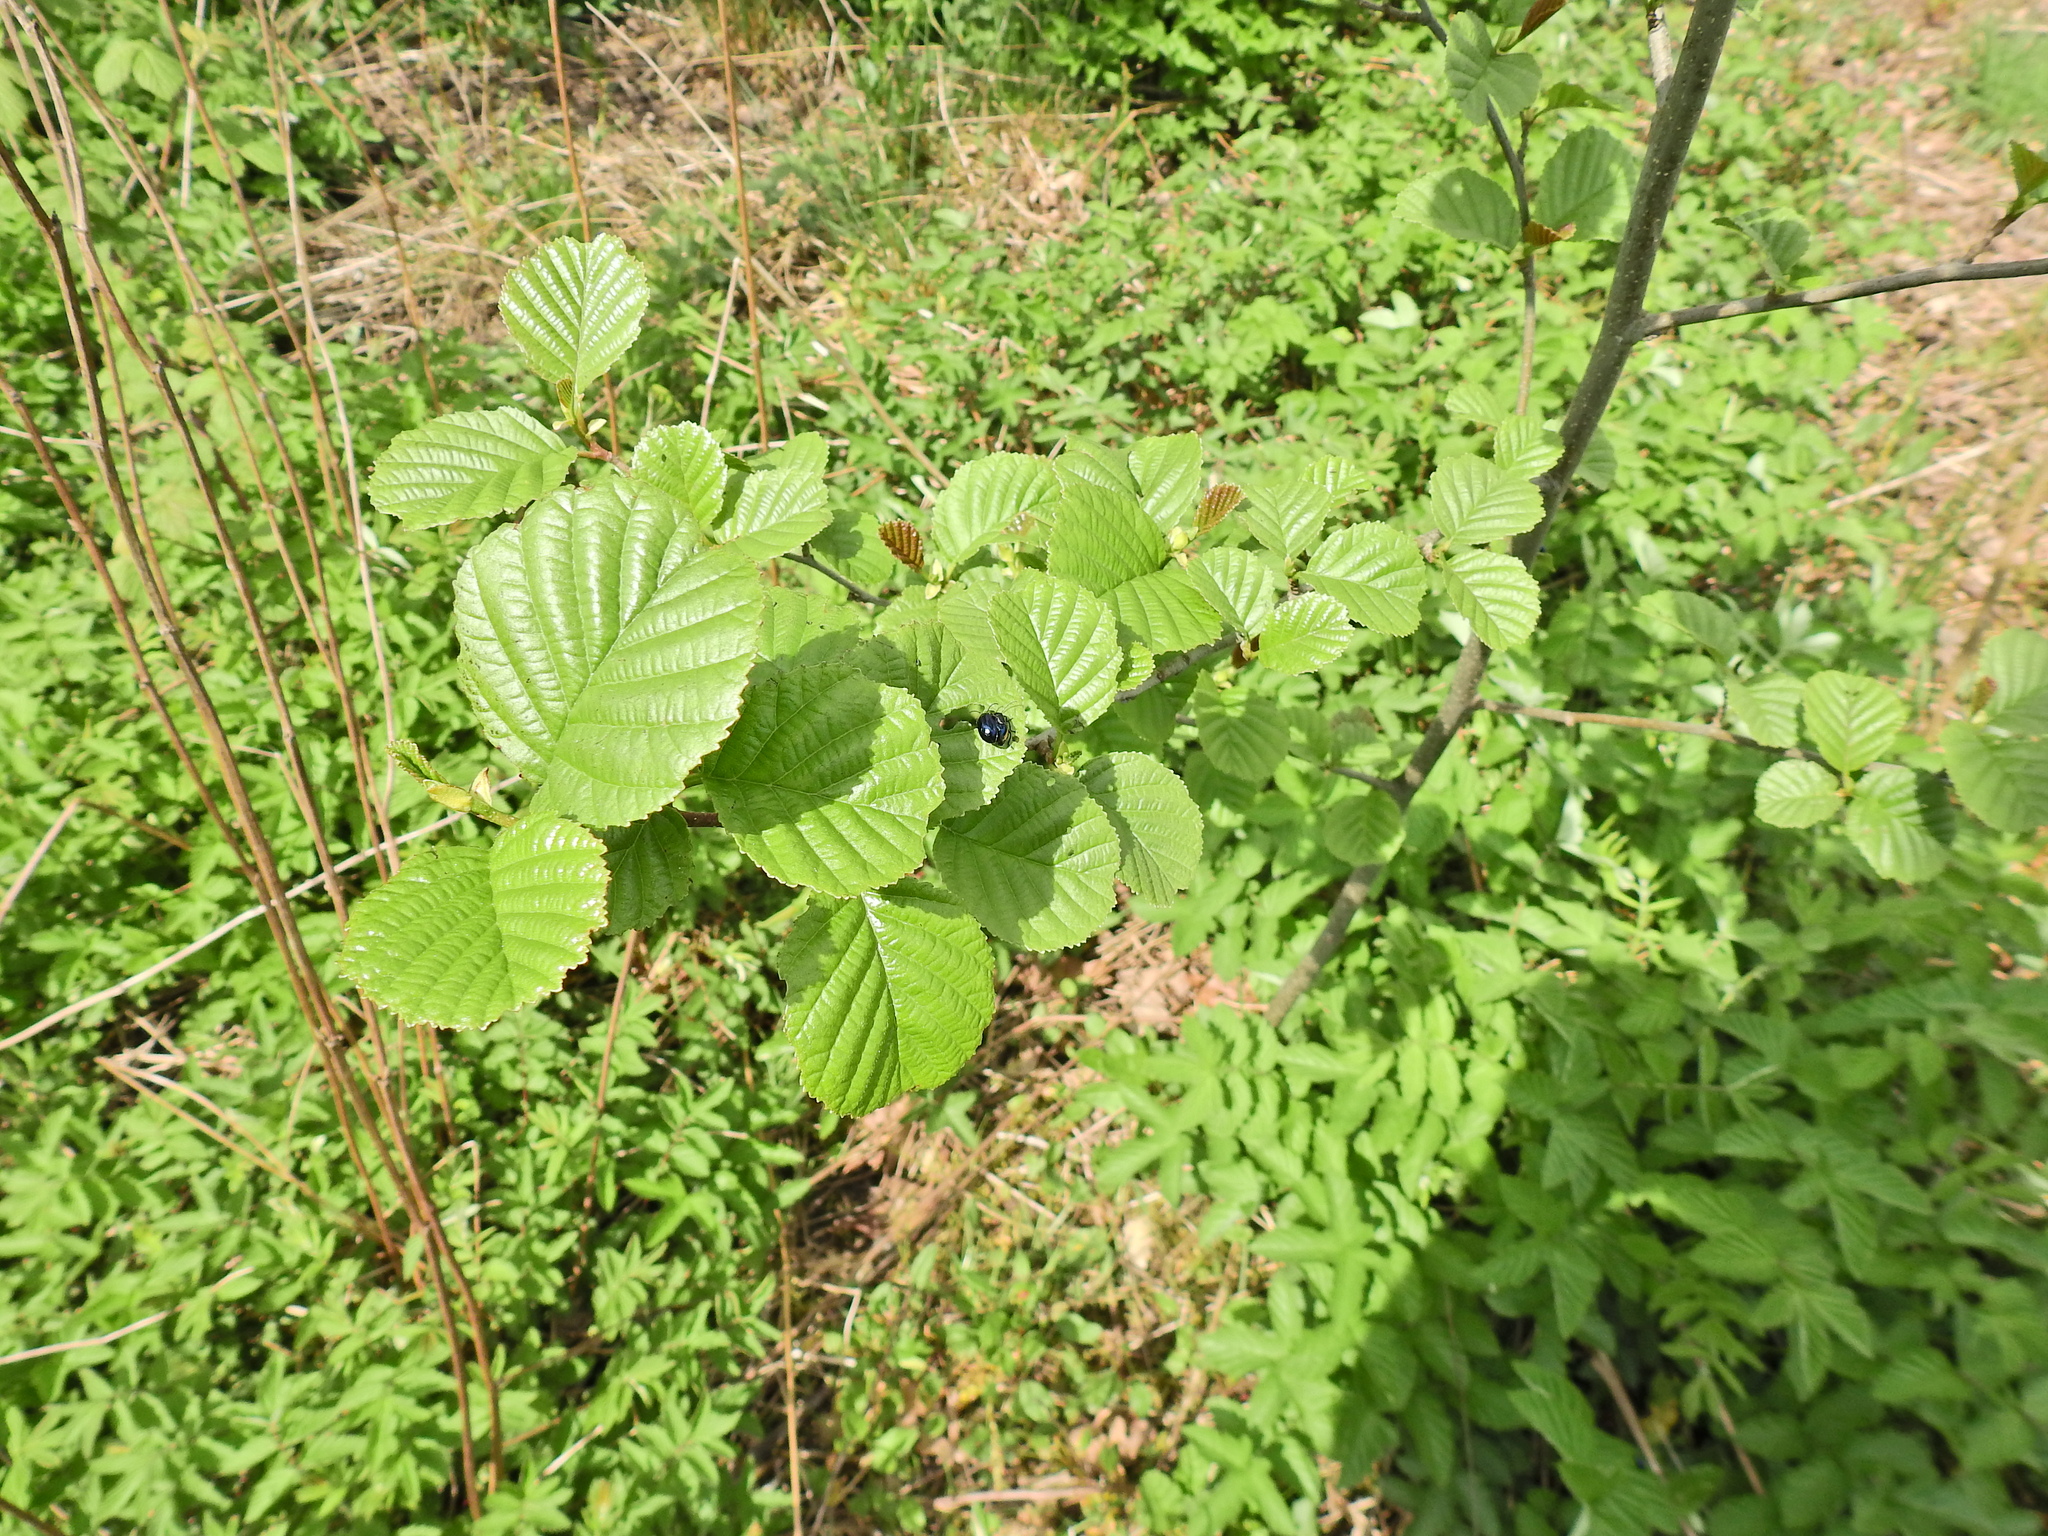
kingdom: Plantae
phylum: Tracheophyta
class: Magnoliopsida
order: Fagales
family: Betulaceae
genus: Alnus
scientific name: Alnus glutinosa
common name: Black alder
